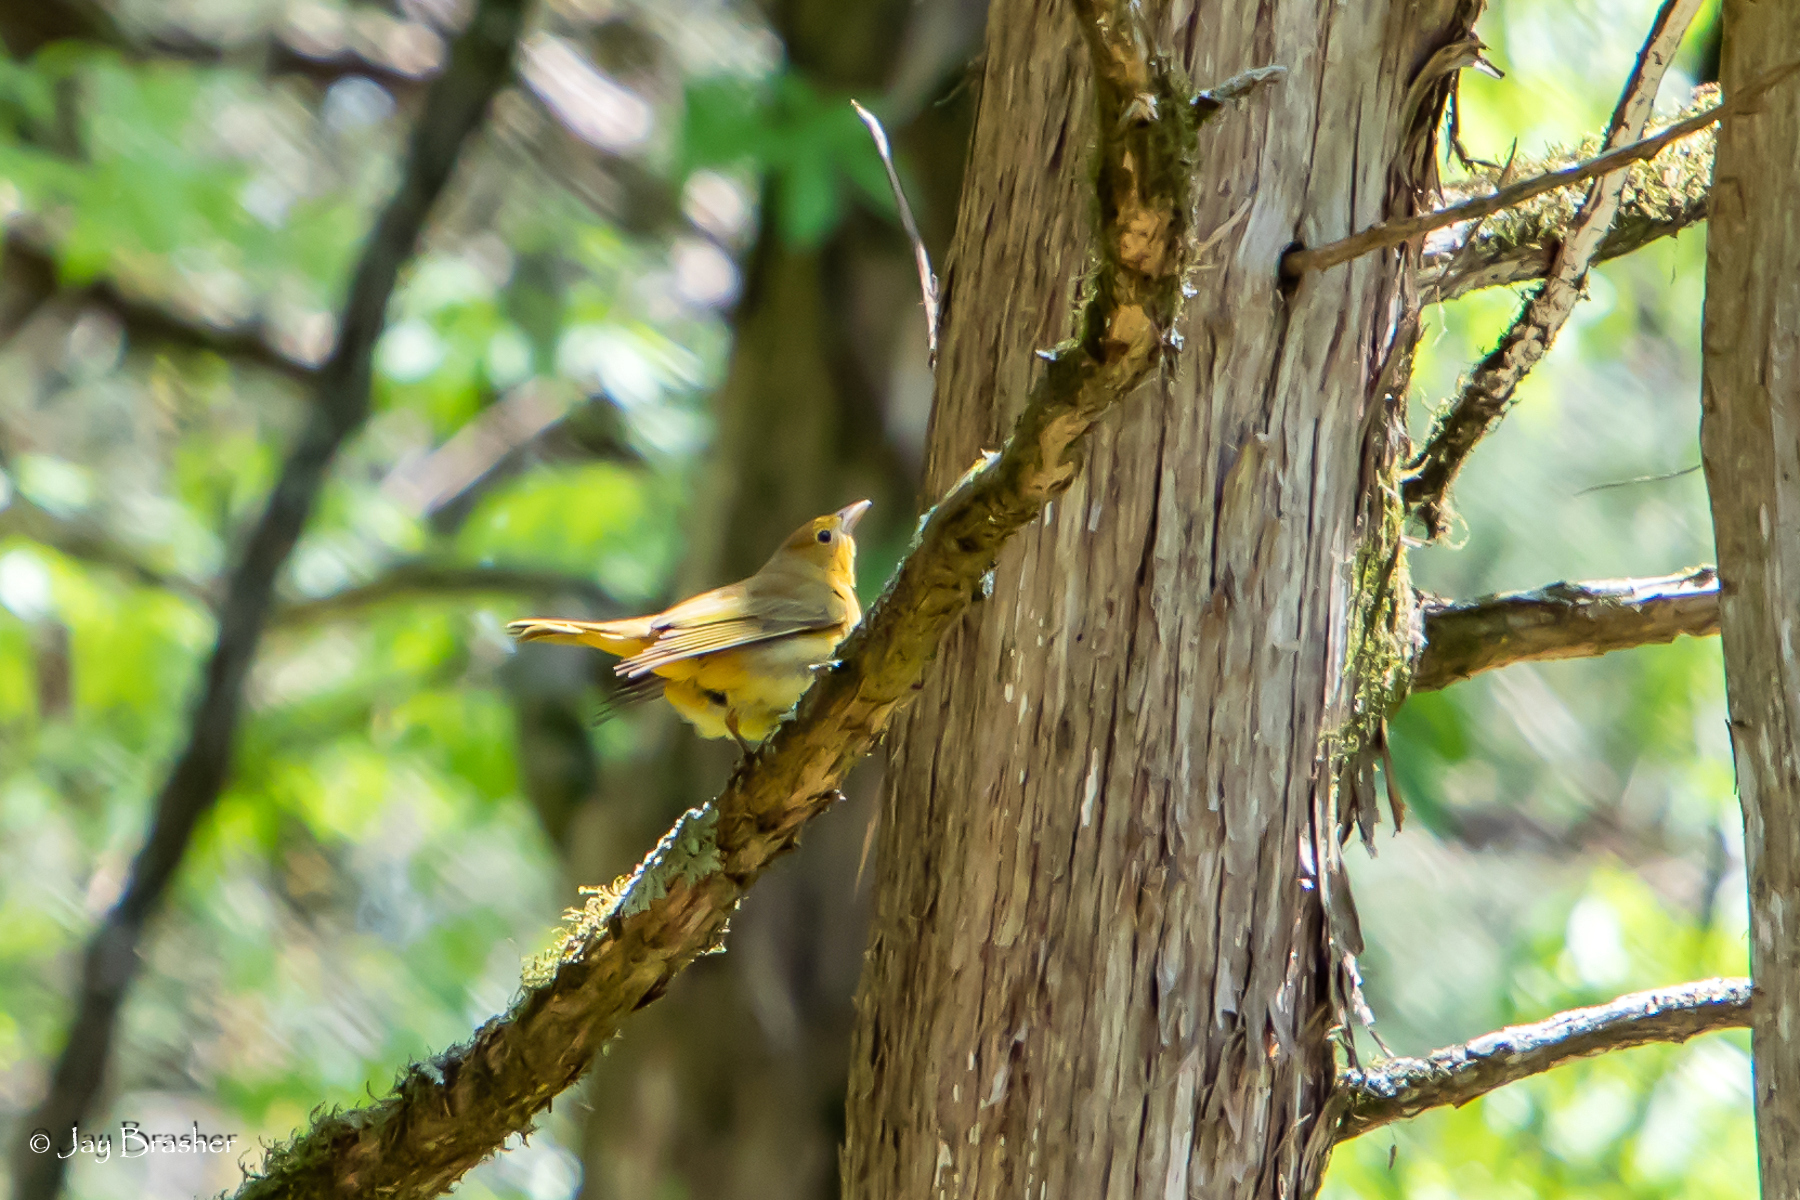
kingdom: Animalia
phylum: Chordata
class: Aves
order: Passeriformes
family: Cardinalidae
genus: Piranga
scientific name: Piranga rubra
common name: Summer tanager
